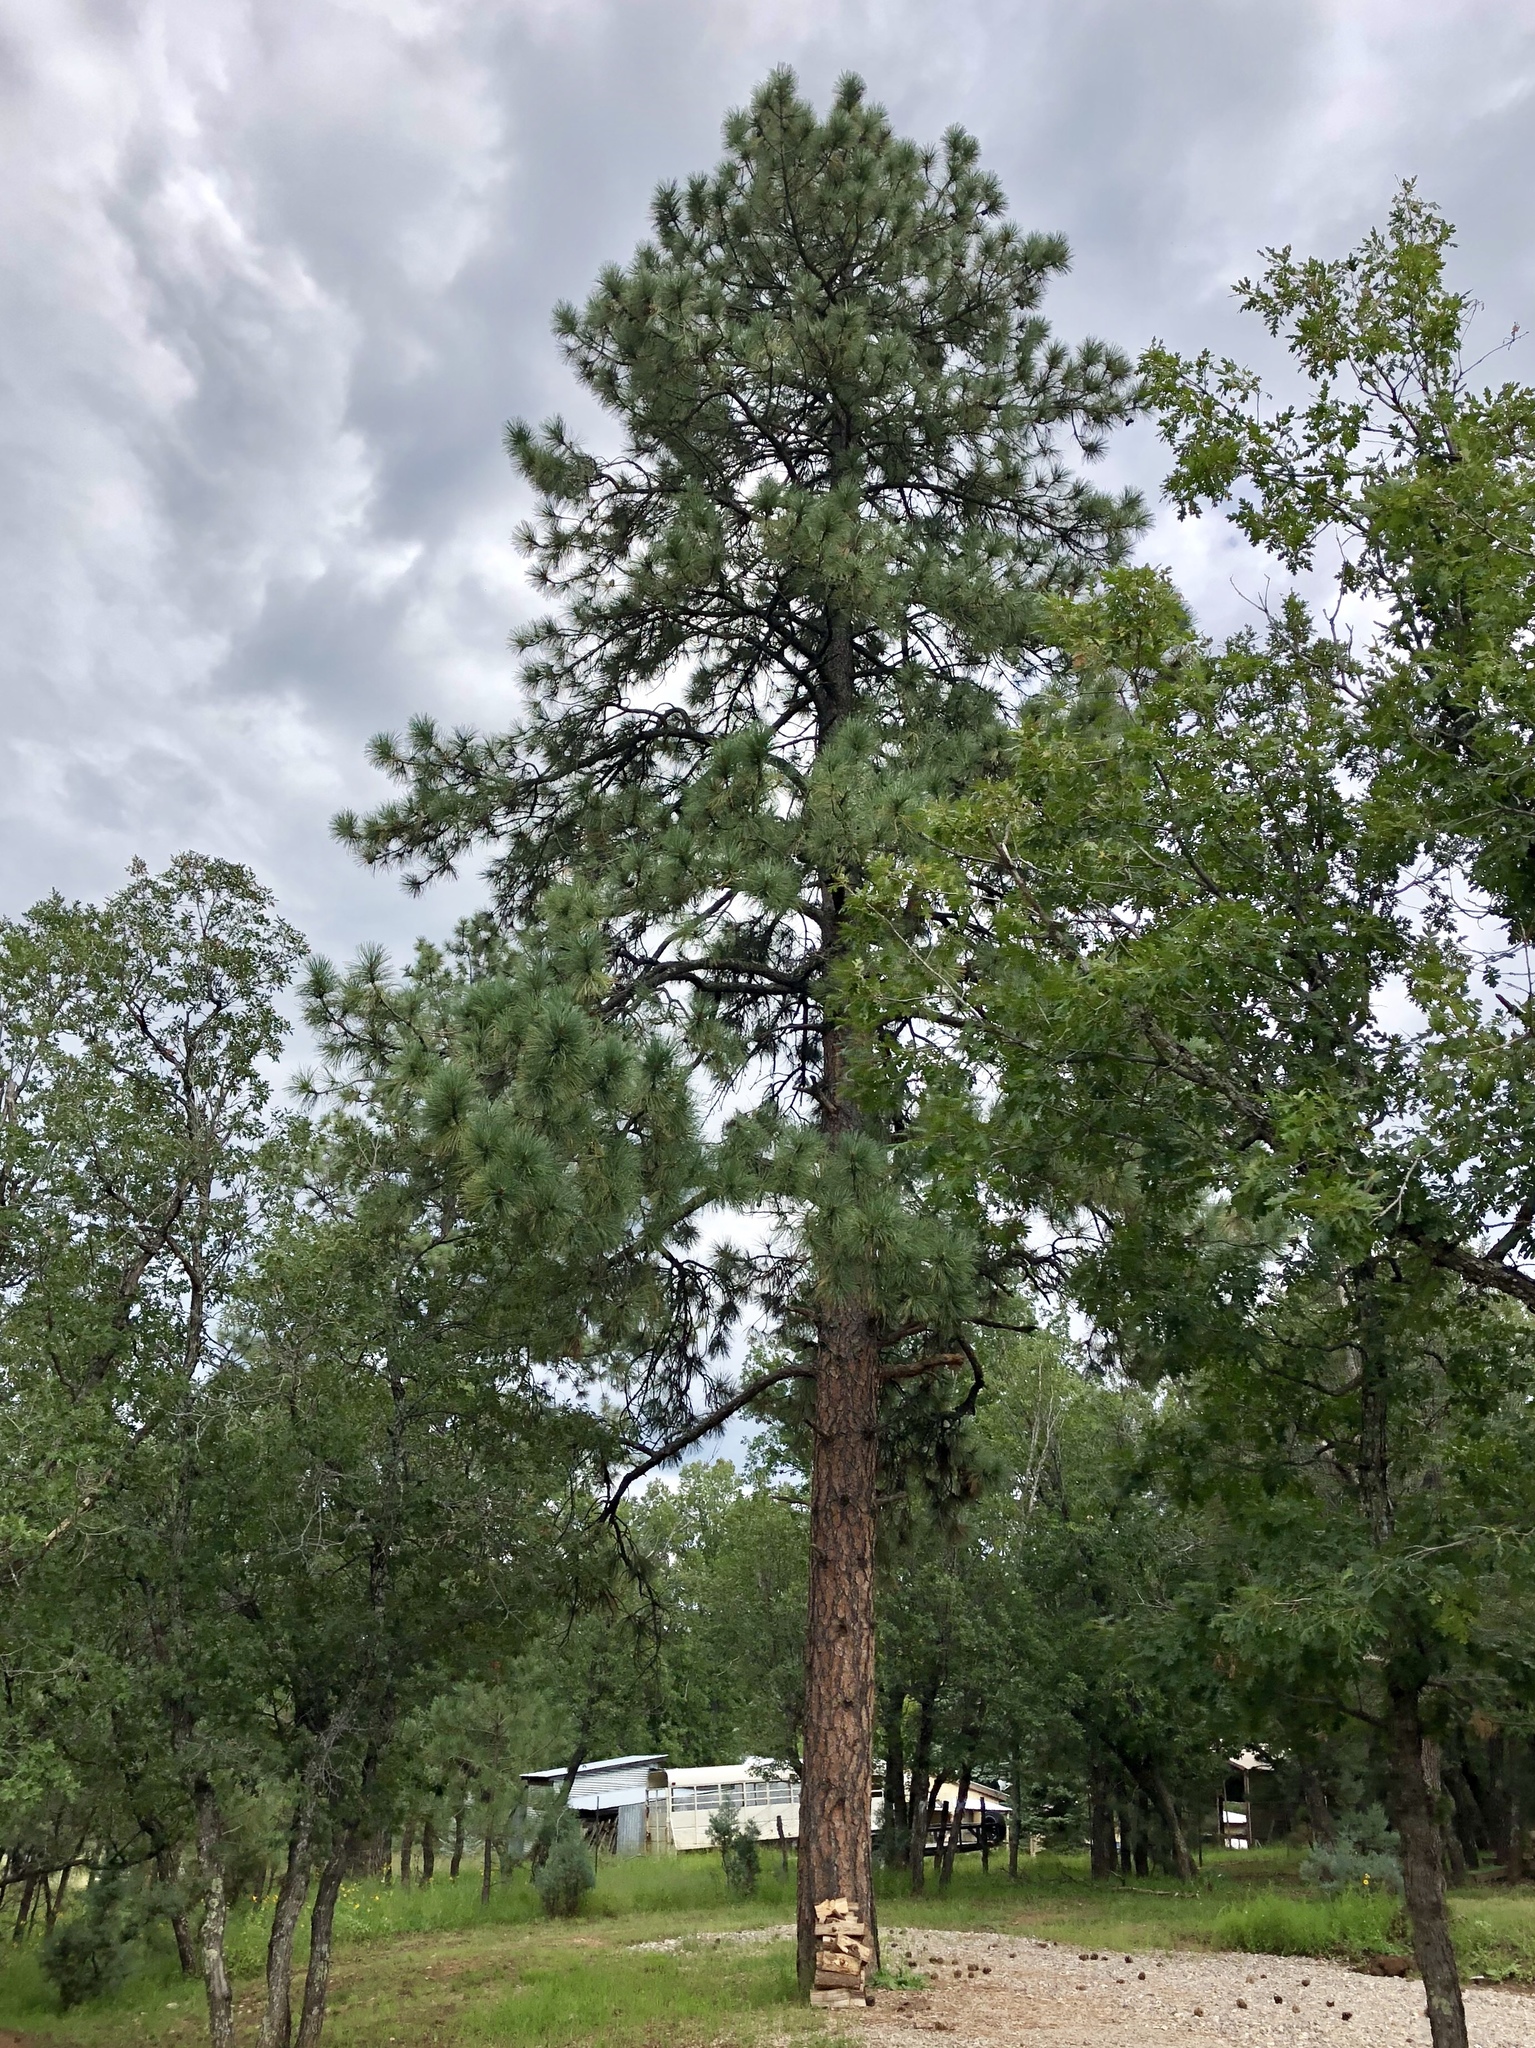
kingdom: Plantae
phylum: Tracheophyta
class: Pinopsida
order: Pinales
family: Pinaceae
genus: Pinus
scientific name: Pinus ponderosa
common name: Western yellow-pine
